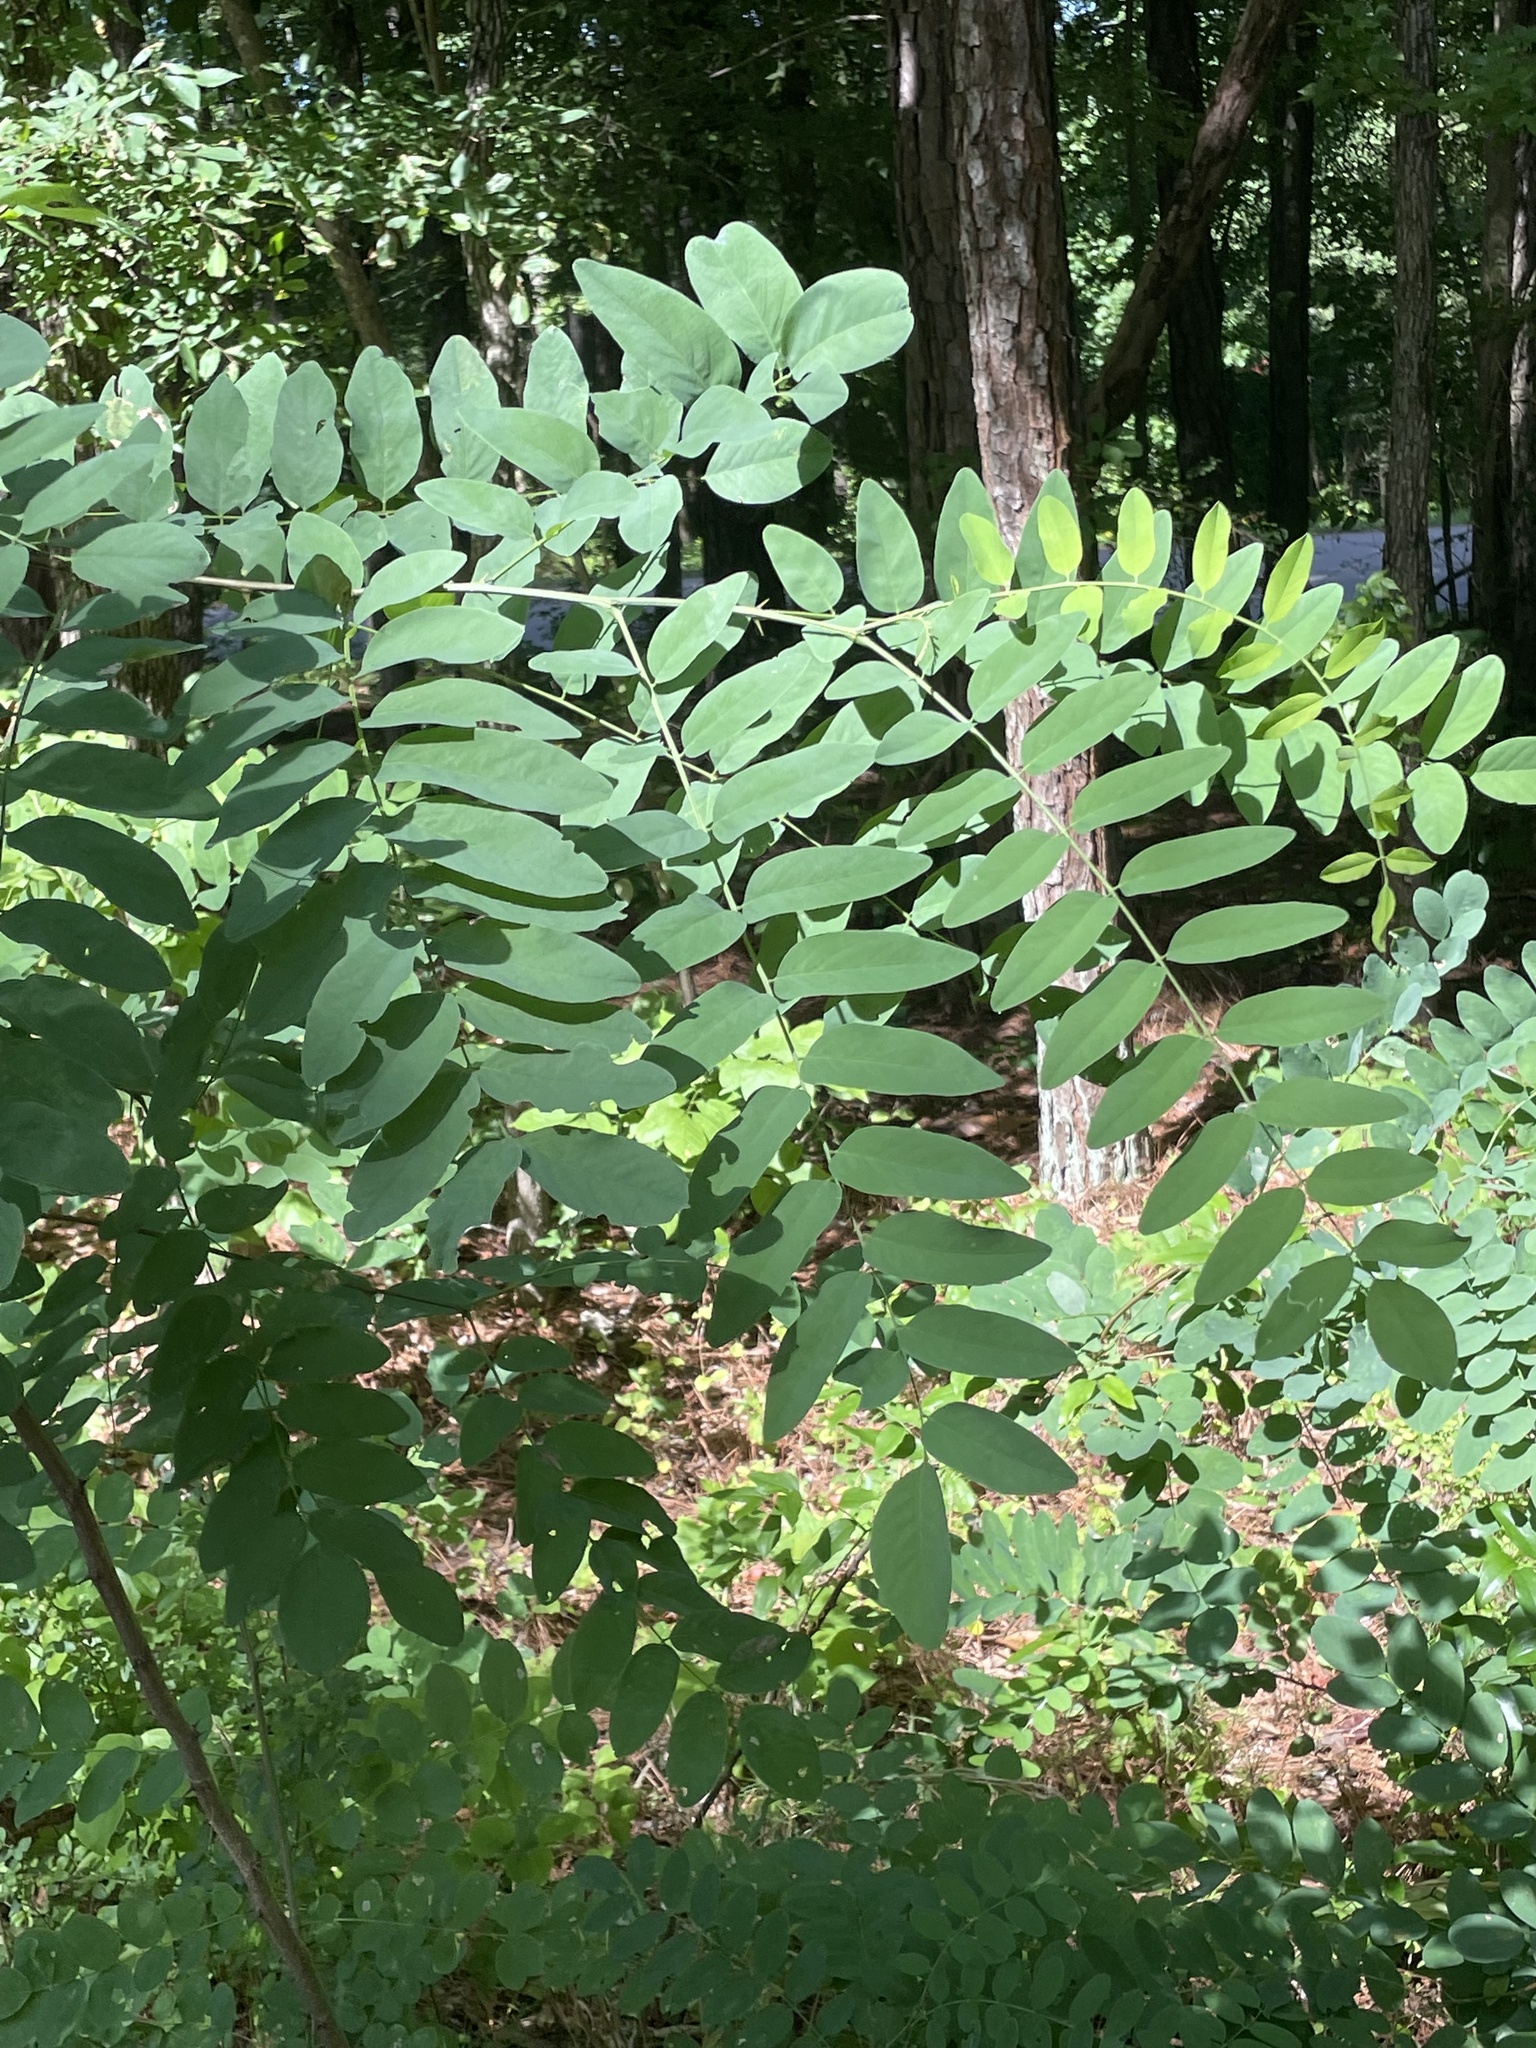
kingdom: Plantae
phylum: Tracheophyta
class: Magnoliopsida
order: Fabales
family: Fabaceae
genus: Robinia
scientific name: Robinia pseudoacacia
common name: Black locust
